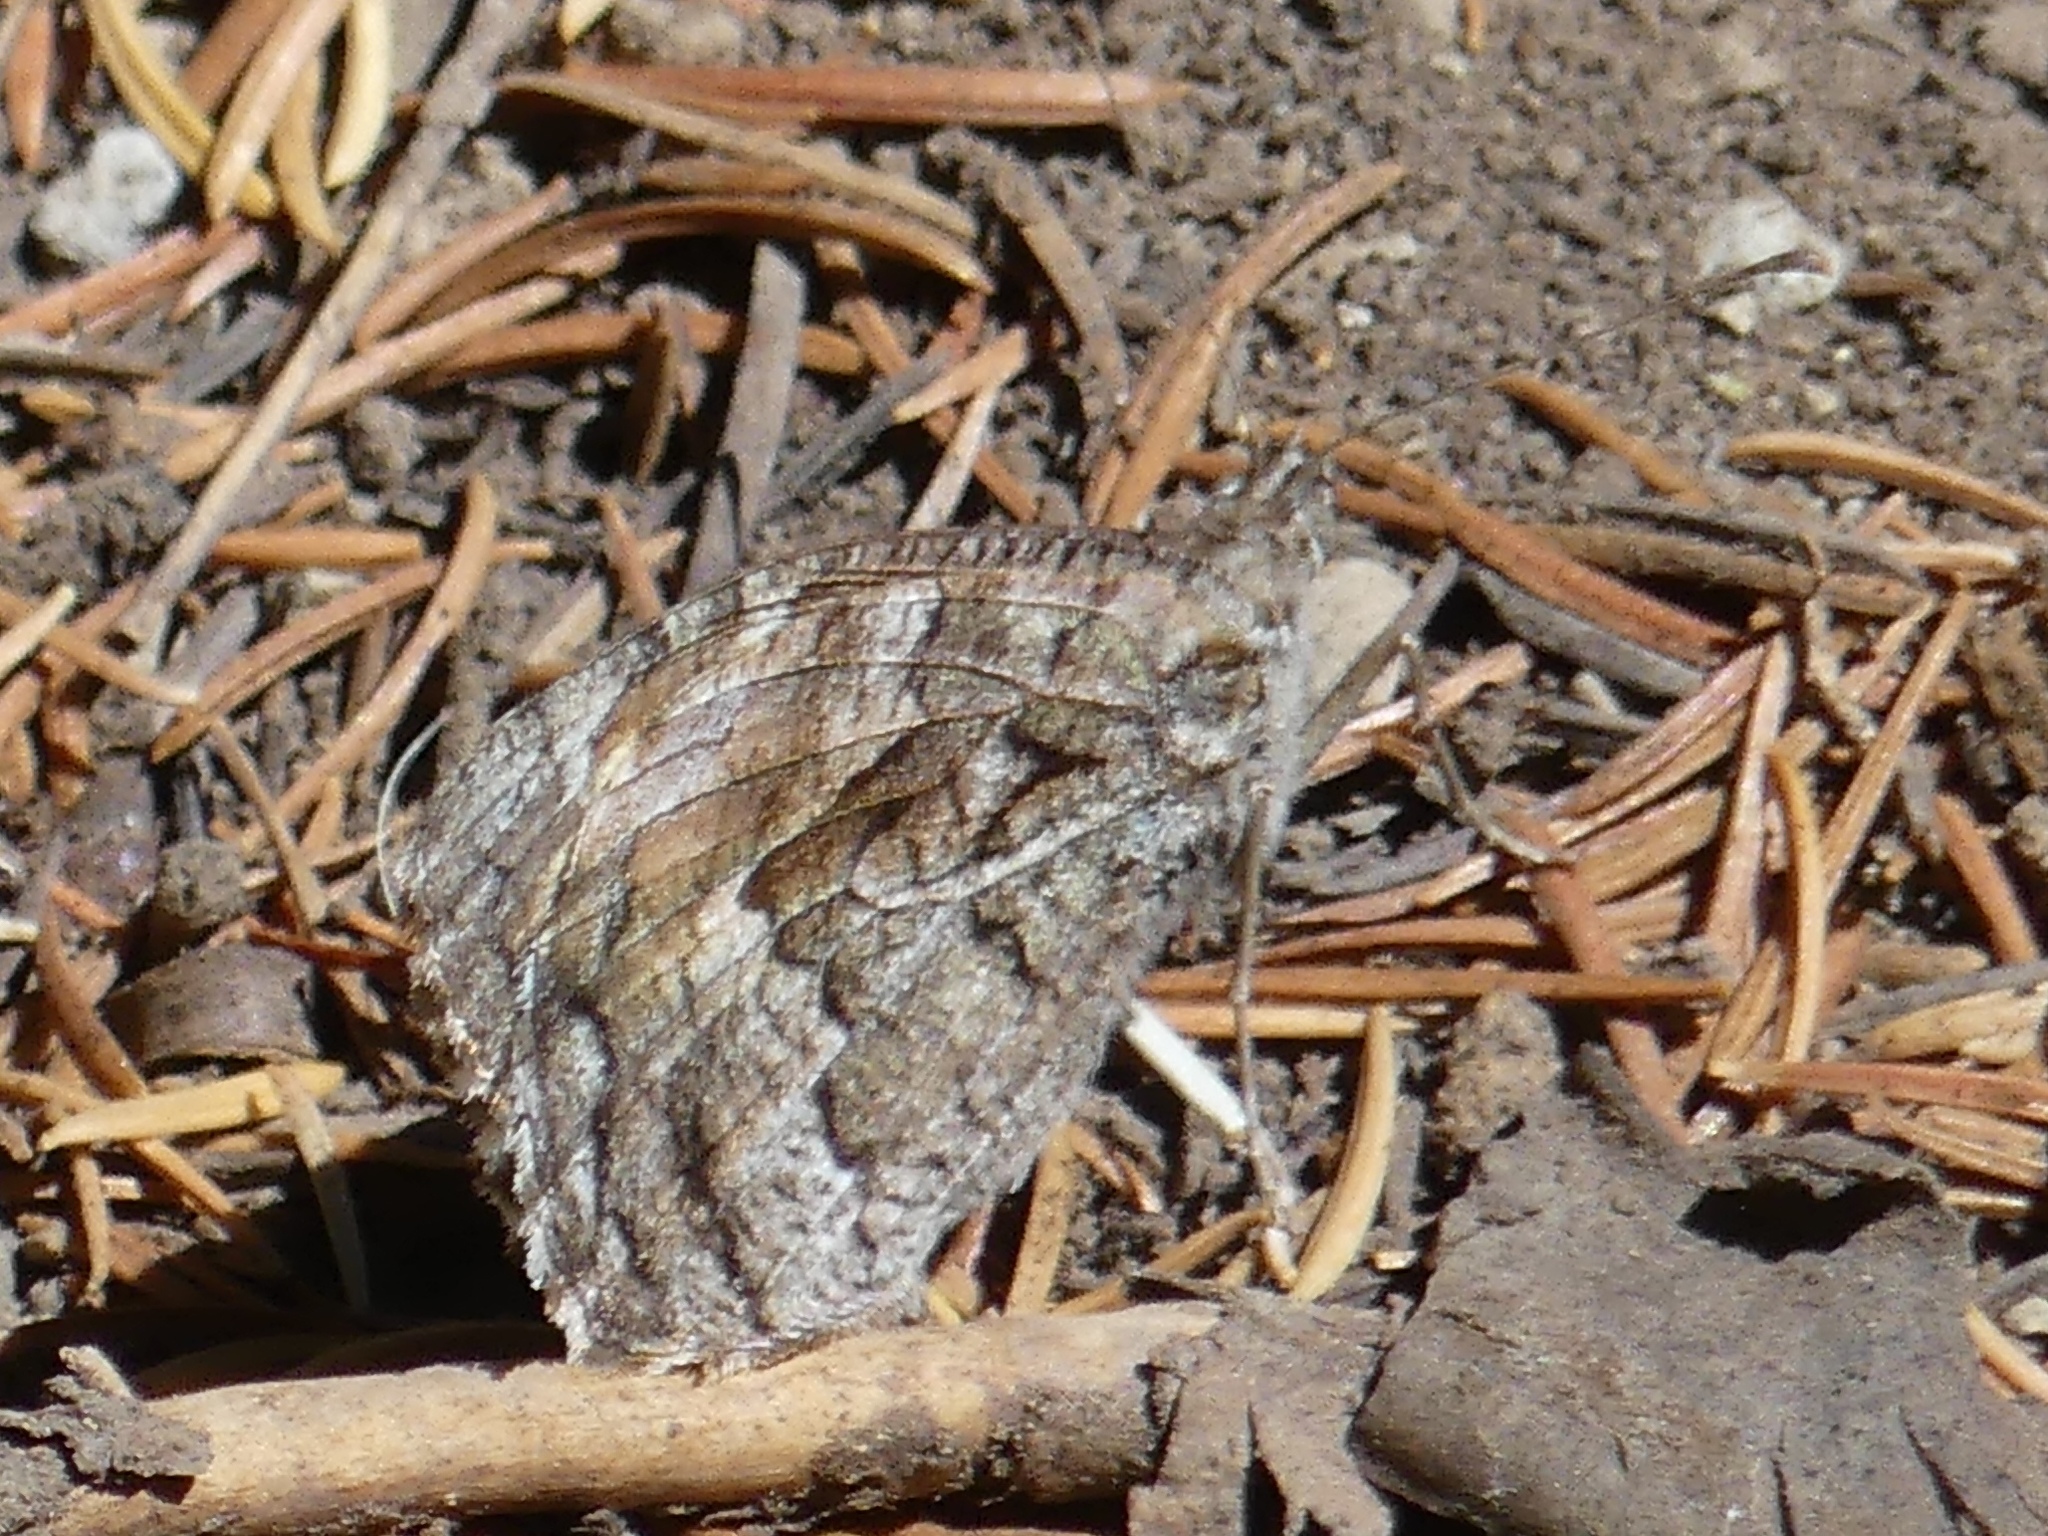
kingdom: Animalia
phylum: Arthropoda
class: Insecta
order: Lepidoptera
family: Nymphalidae
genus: Hipparchia
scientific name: Hipparchia algirica
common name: Mountain grayling
